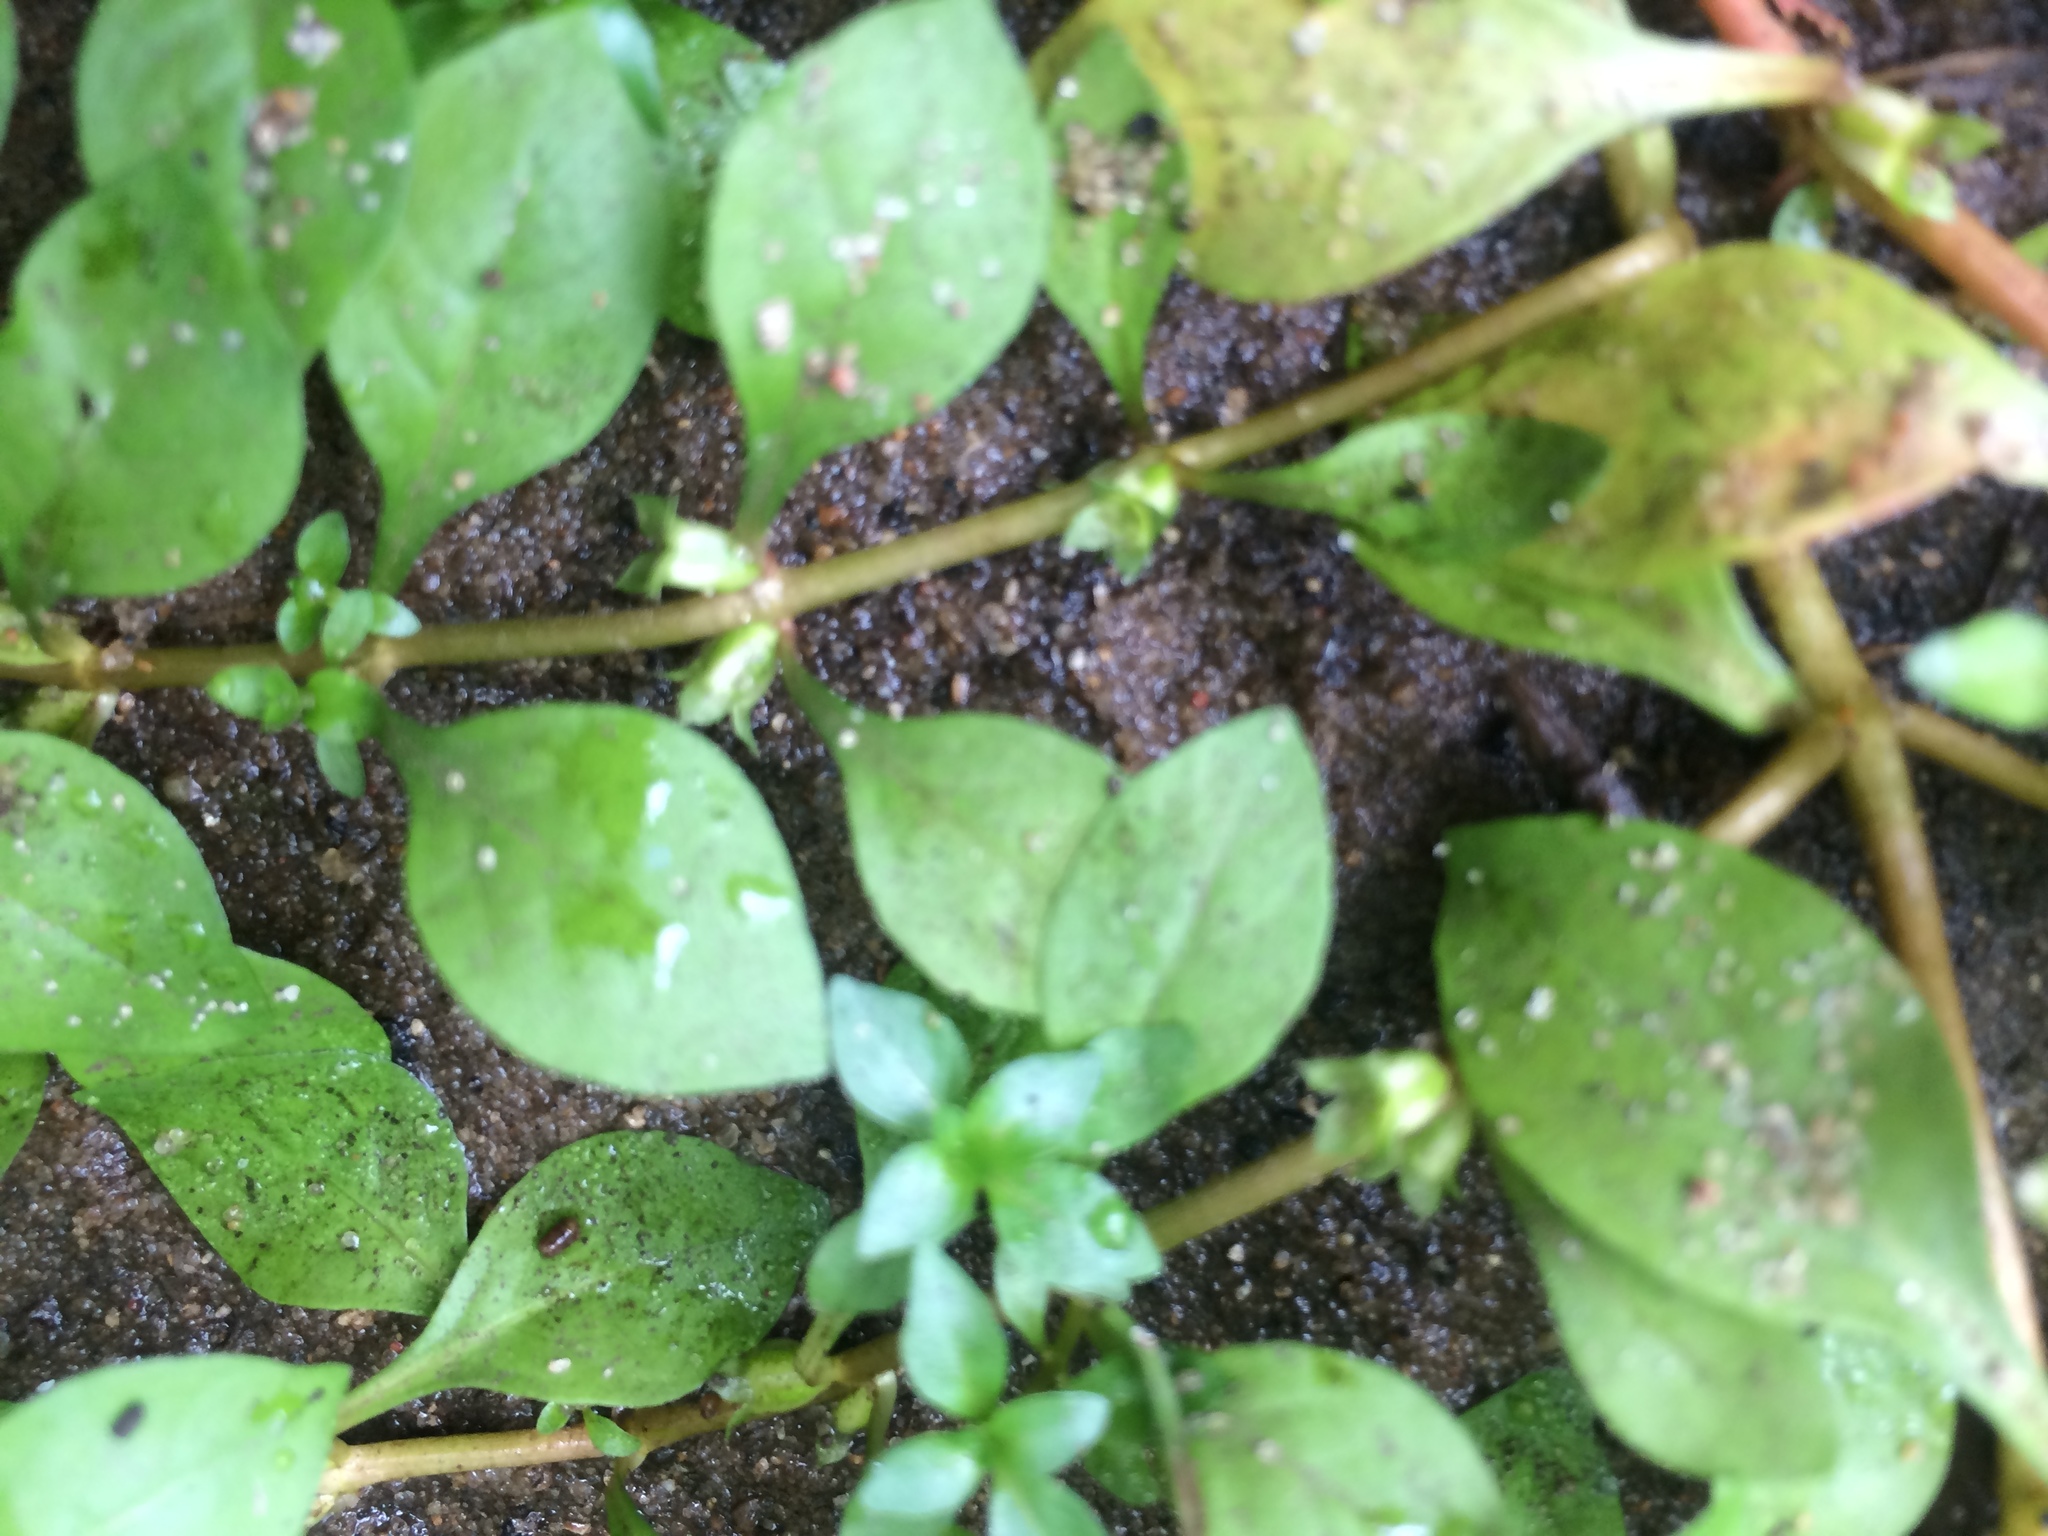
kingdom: Plantae
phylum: Tracheophyta
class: Magnoliopsida
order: Myrtales
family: Onagraceae
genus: Ludwigia
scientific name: Ludwigia palustris
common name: Hampshire-purslane
